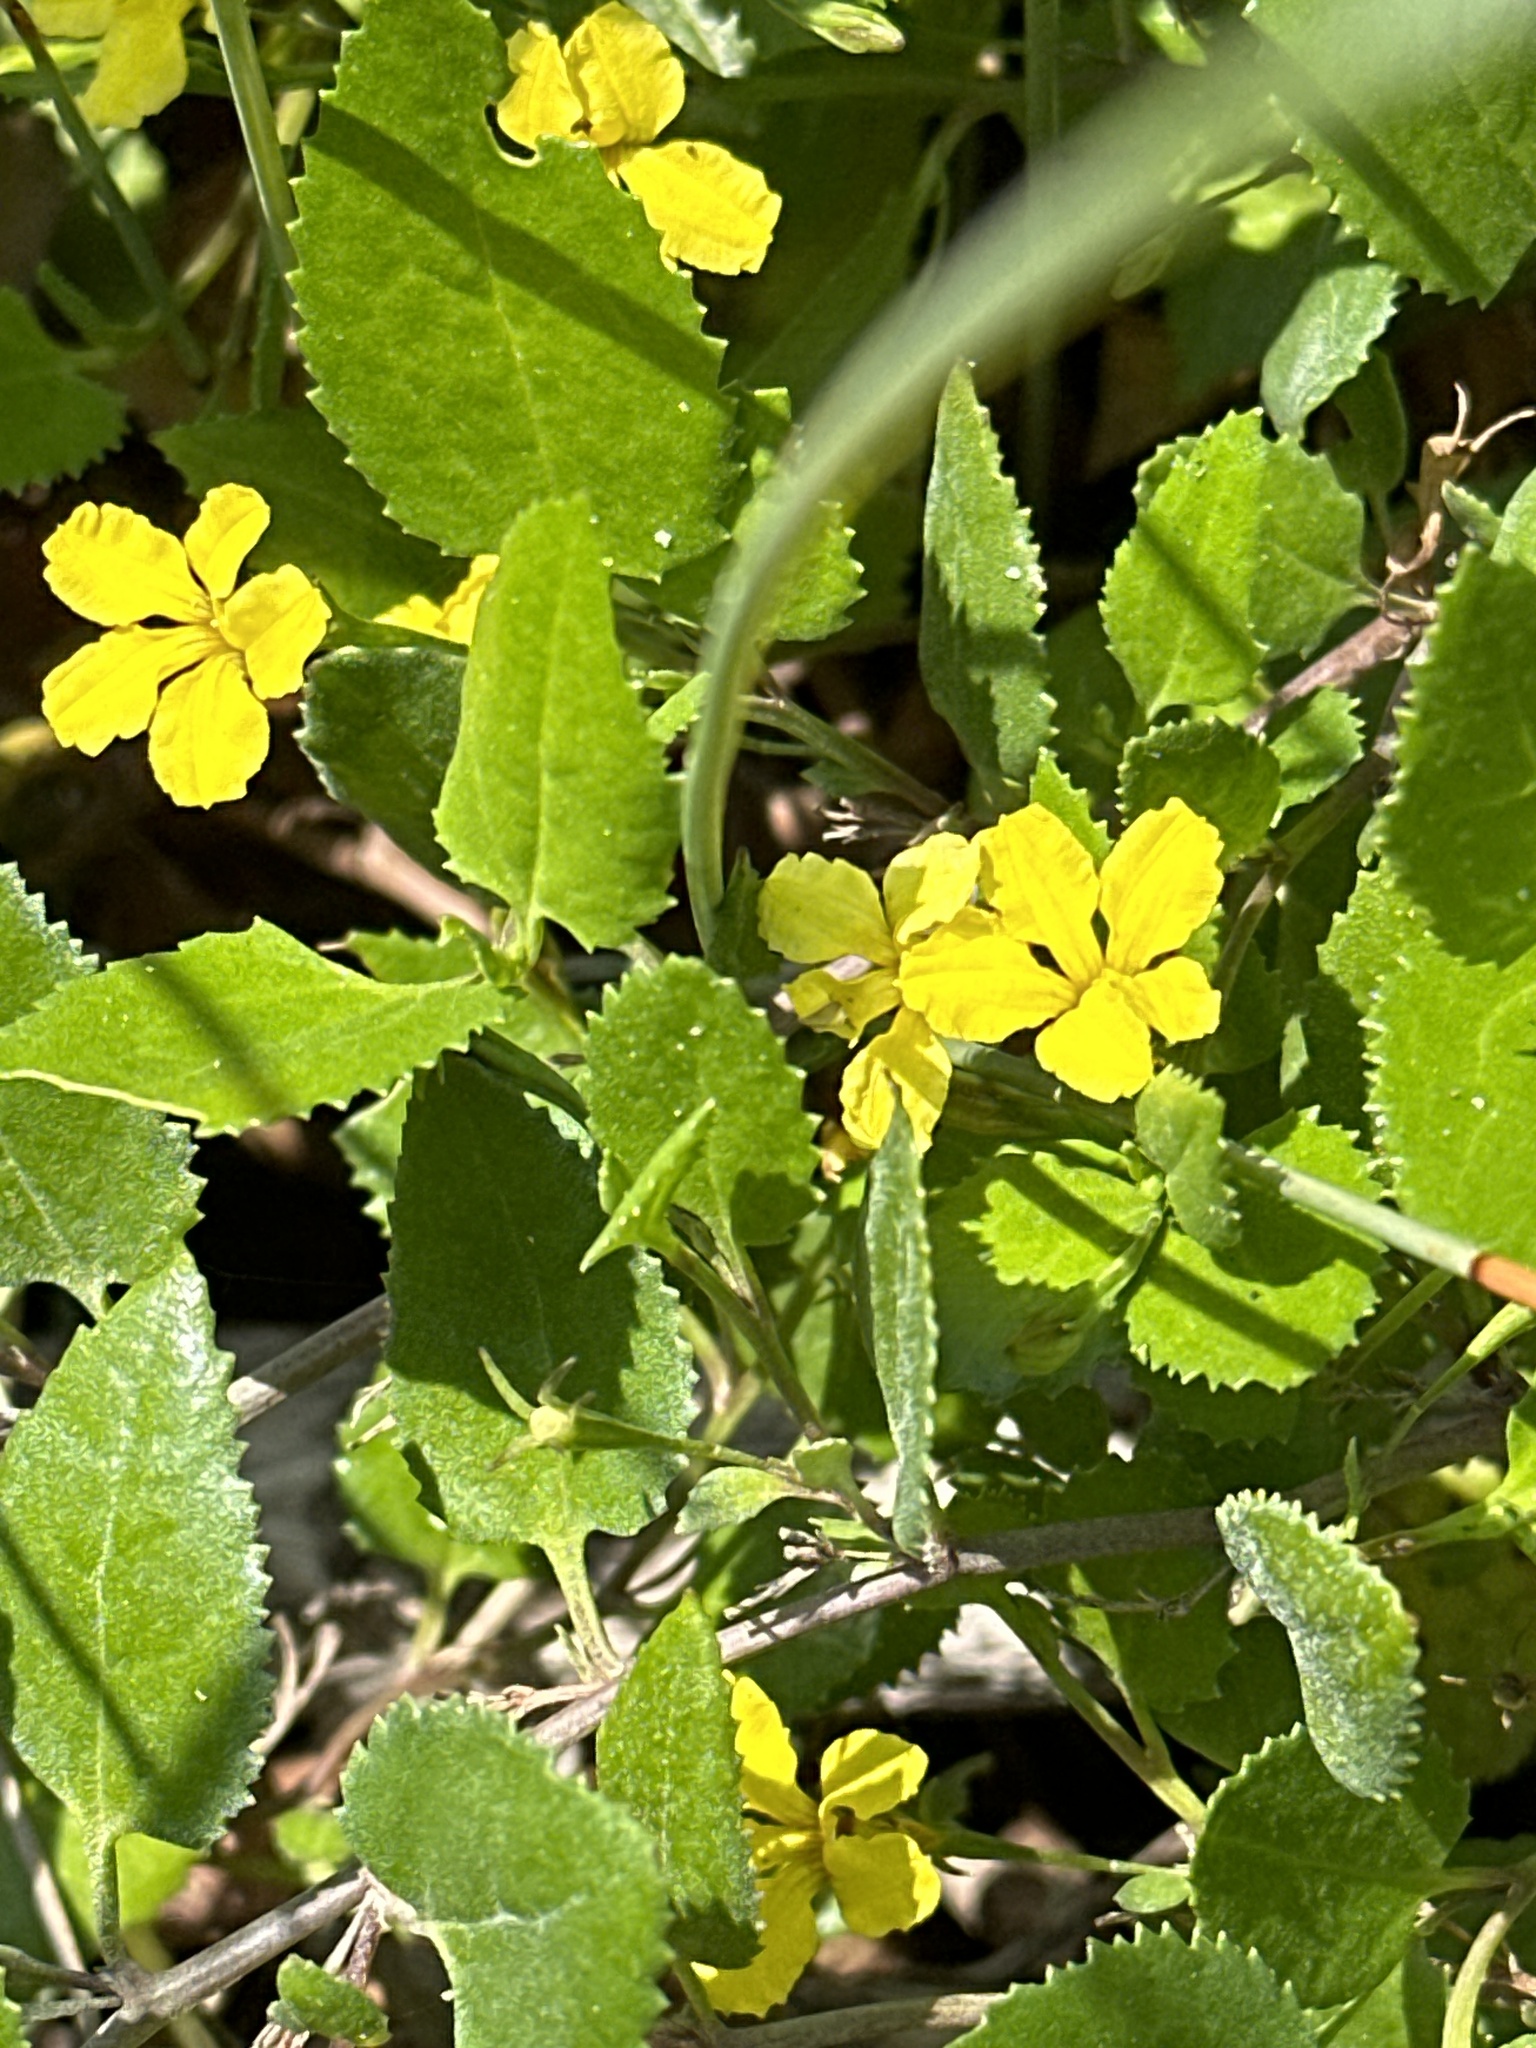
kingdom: Plantae
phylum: Tracheophyta
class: Magnoliopsida
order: Asterales
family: Goodeniaceae
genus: Goodenia
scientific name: Goodenia ovata
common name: Hop goodenia
